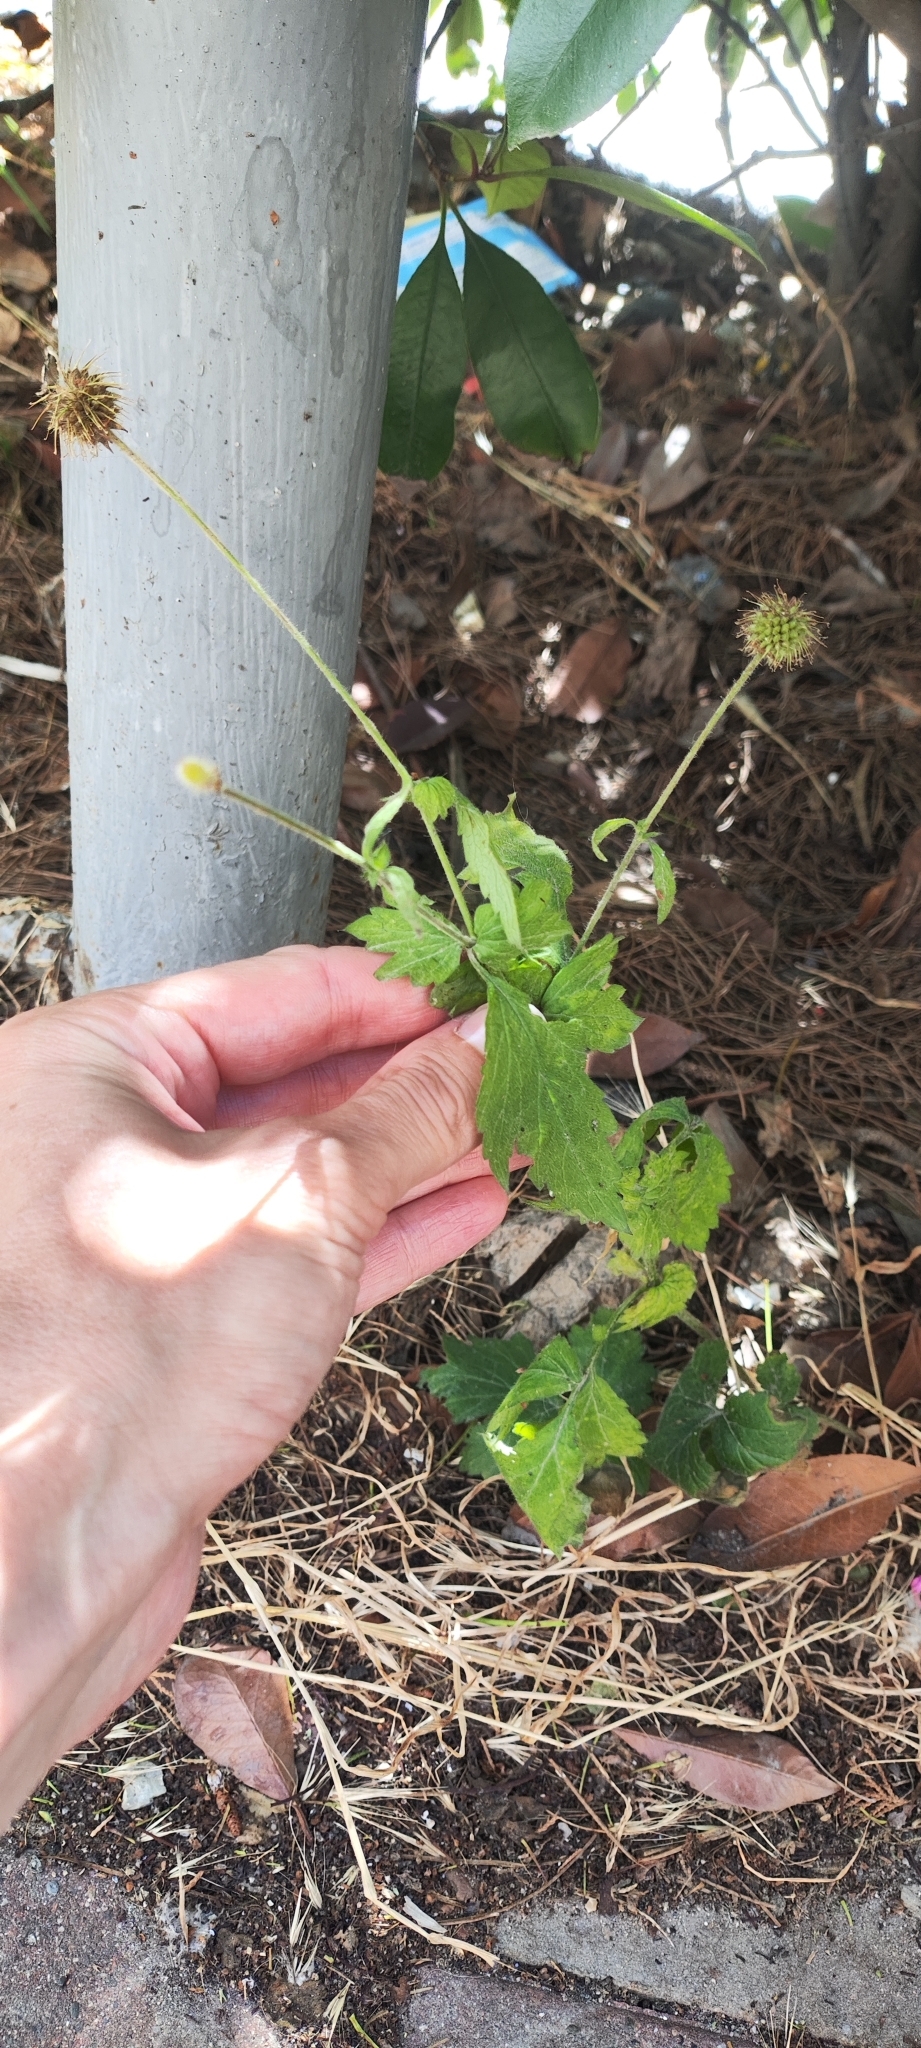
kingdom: Plantae
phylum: Tracheophyta
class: Magnoliopsida
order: Rosales
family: Rosaceae
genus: Geum
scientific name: Geum urbanum
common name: Wood avens
